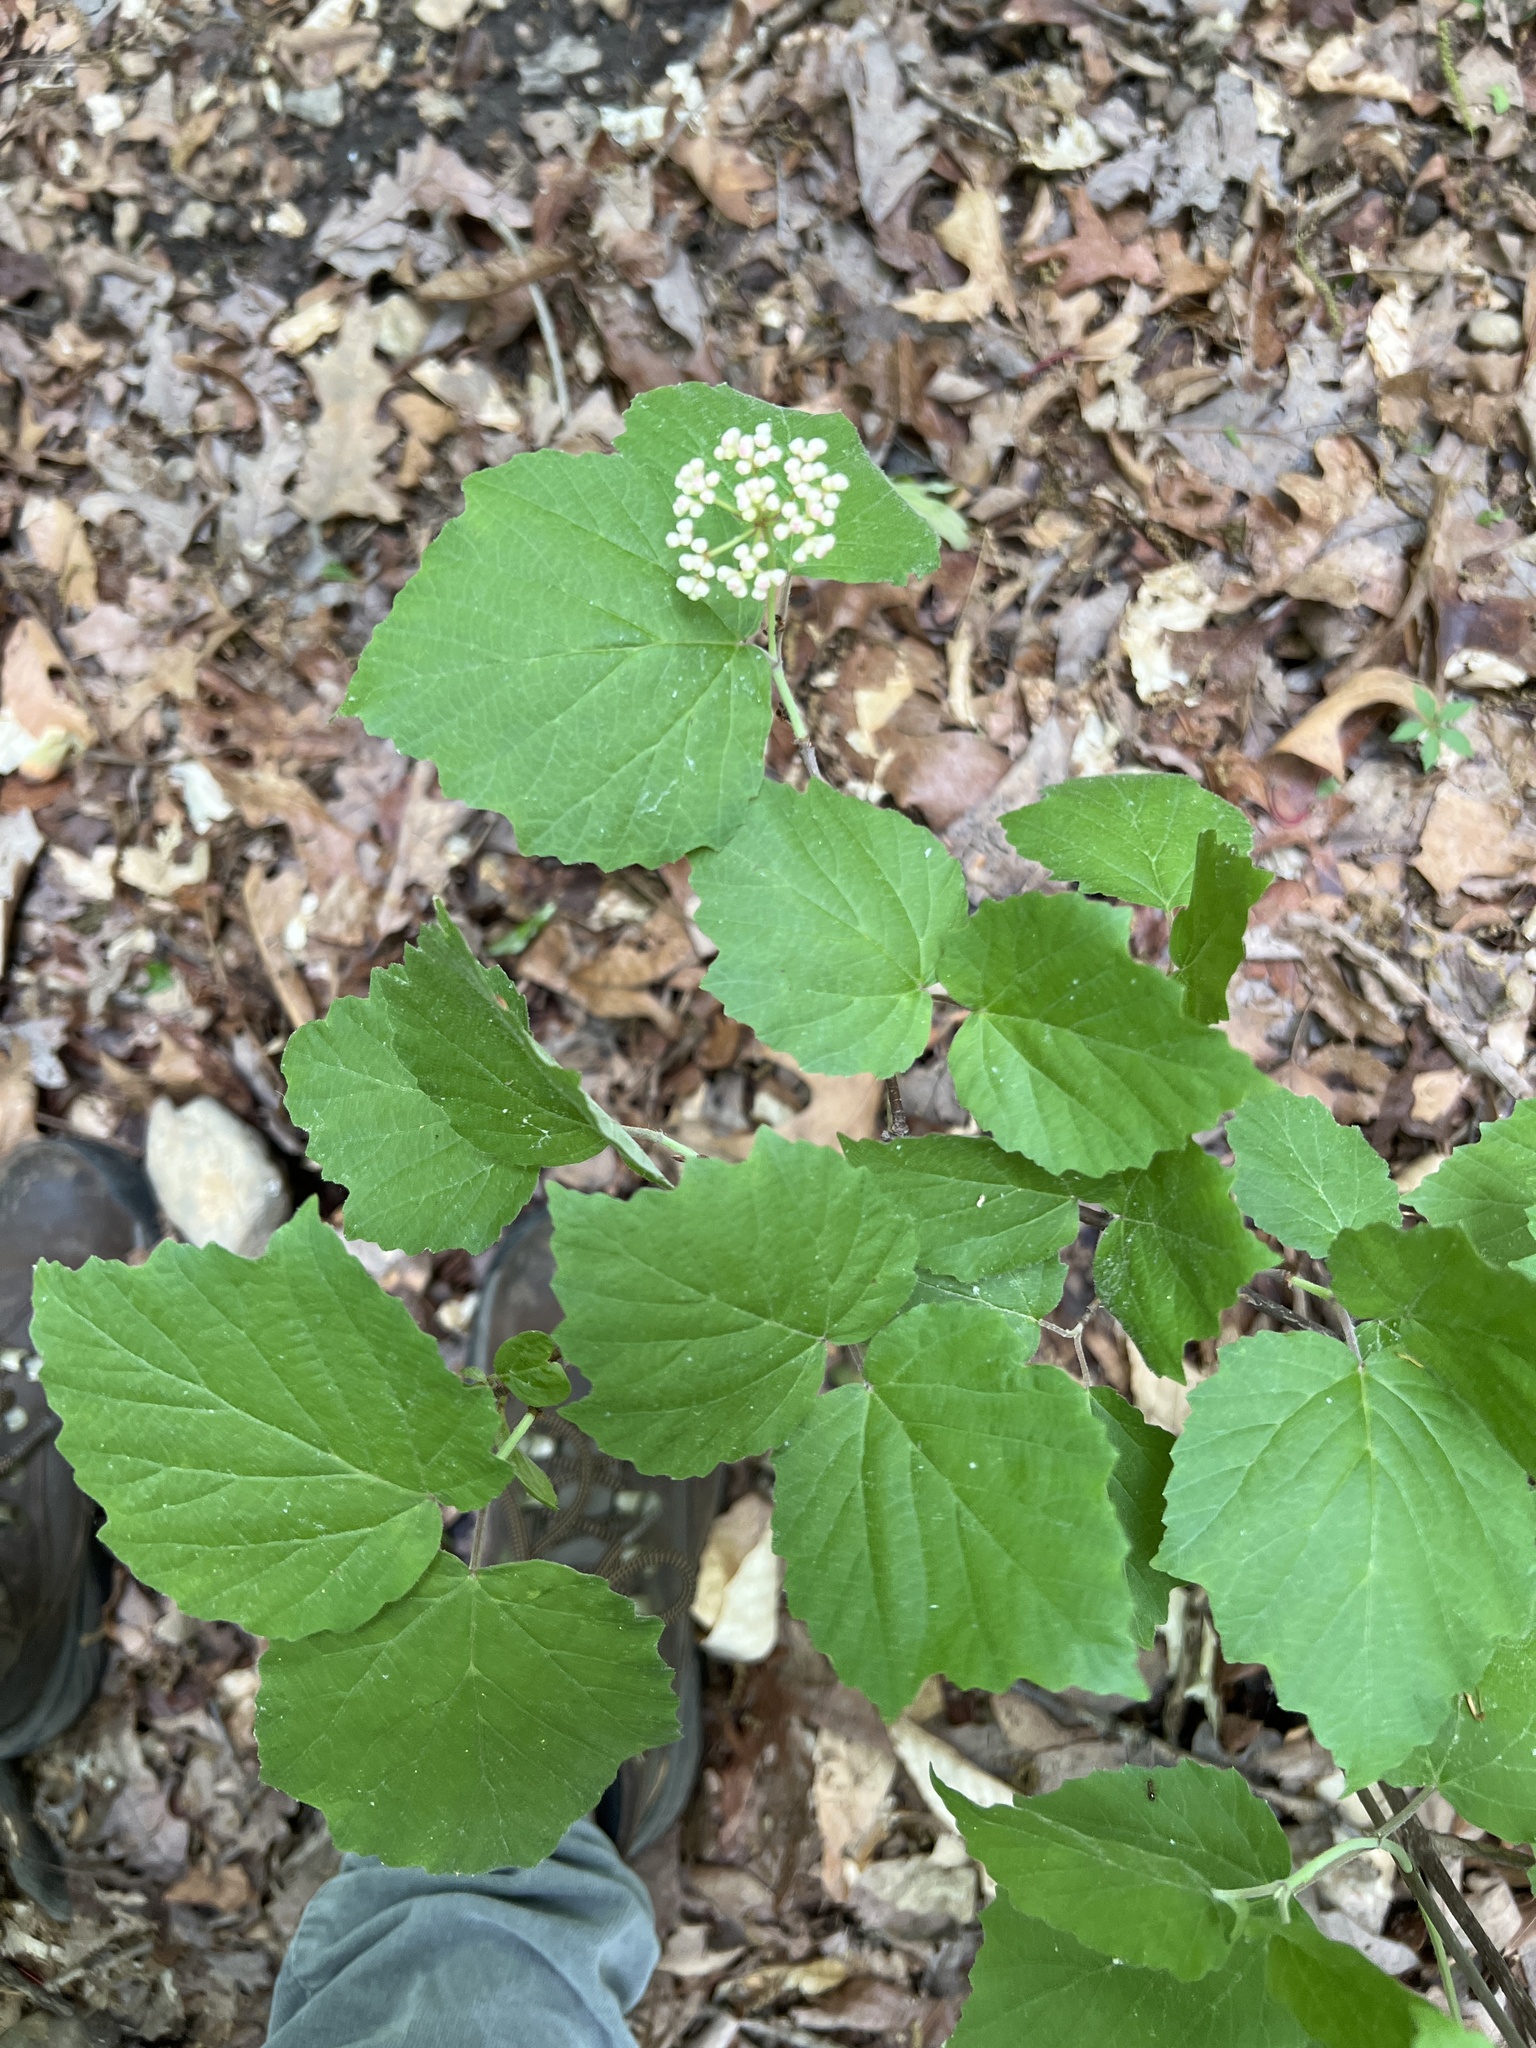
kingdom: Plantae
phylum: Tracheophyta
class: Magnoliopsida
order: Dipsacales
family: Viburnaceae
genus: Viburnum
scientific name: Viburnum acerifolium
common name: Dockmackie
